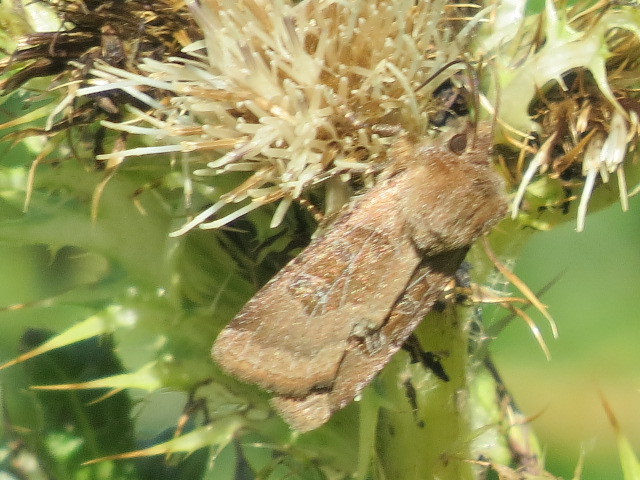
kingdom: Animalia
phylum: Arthropoda
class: Insecta
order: Lepidoptera
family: Noctuidae
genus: Chersotis
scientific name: Chersotis cuprea
